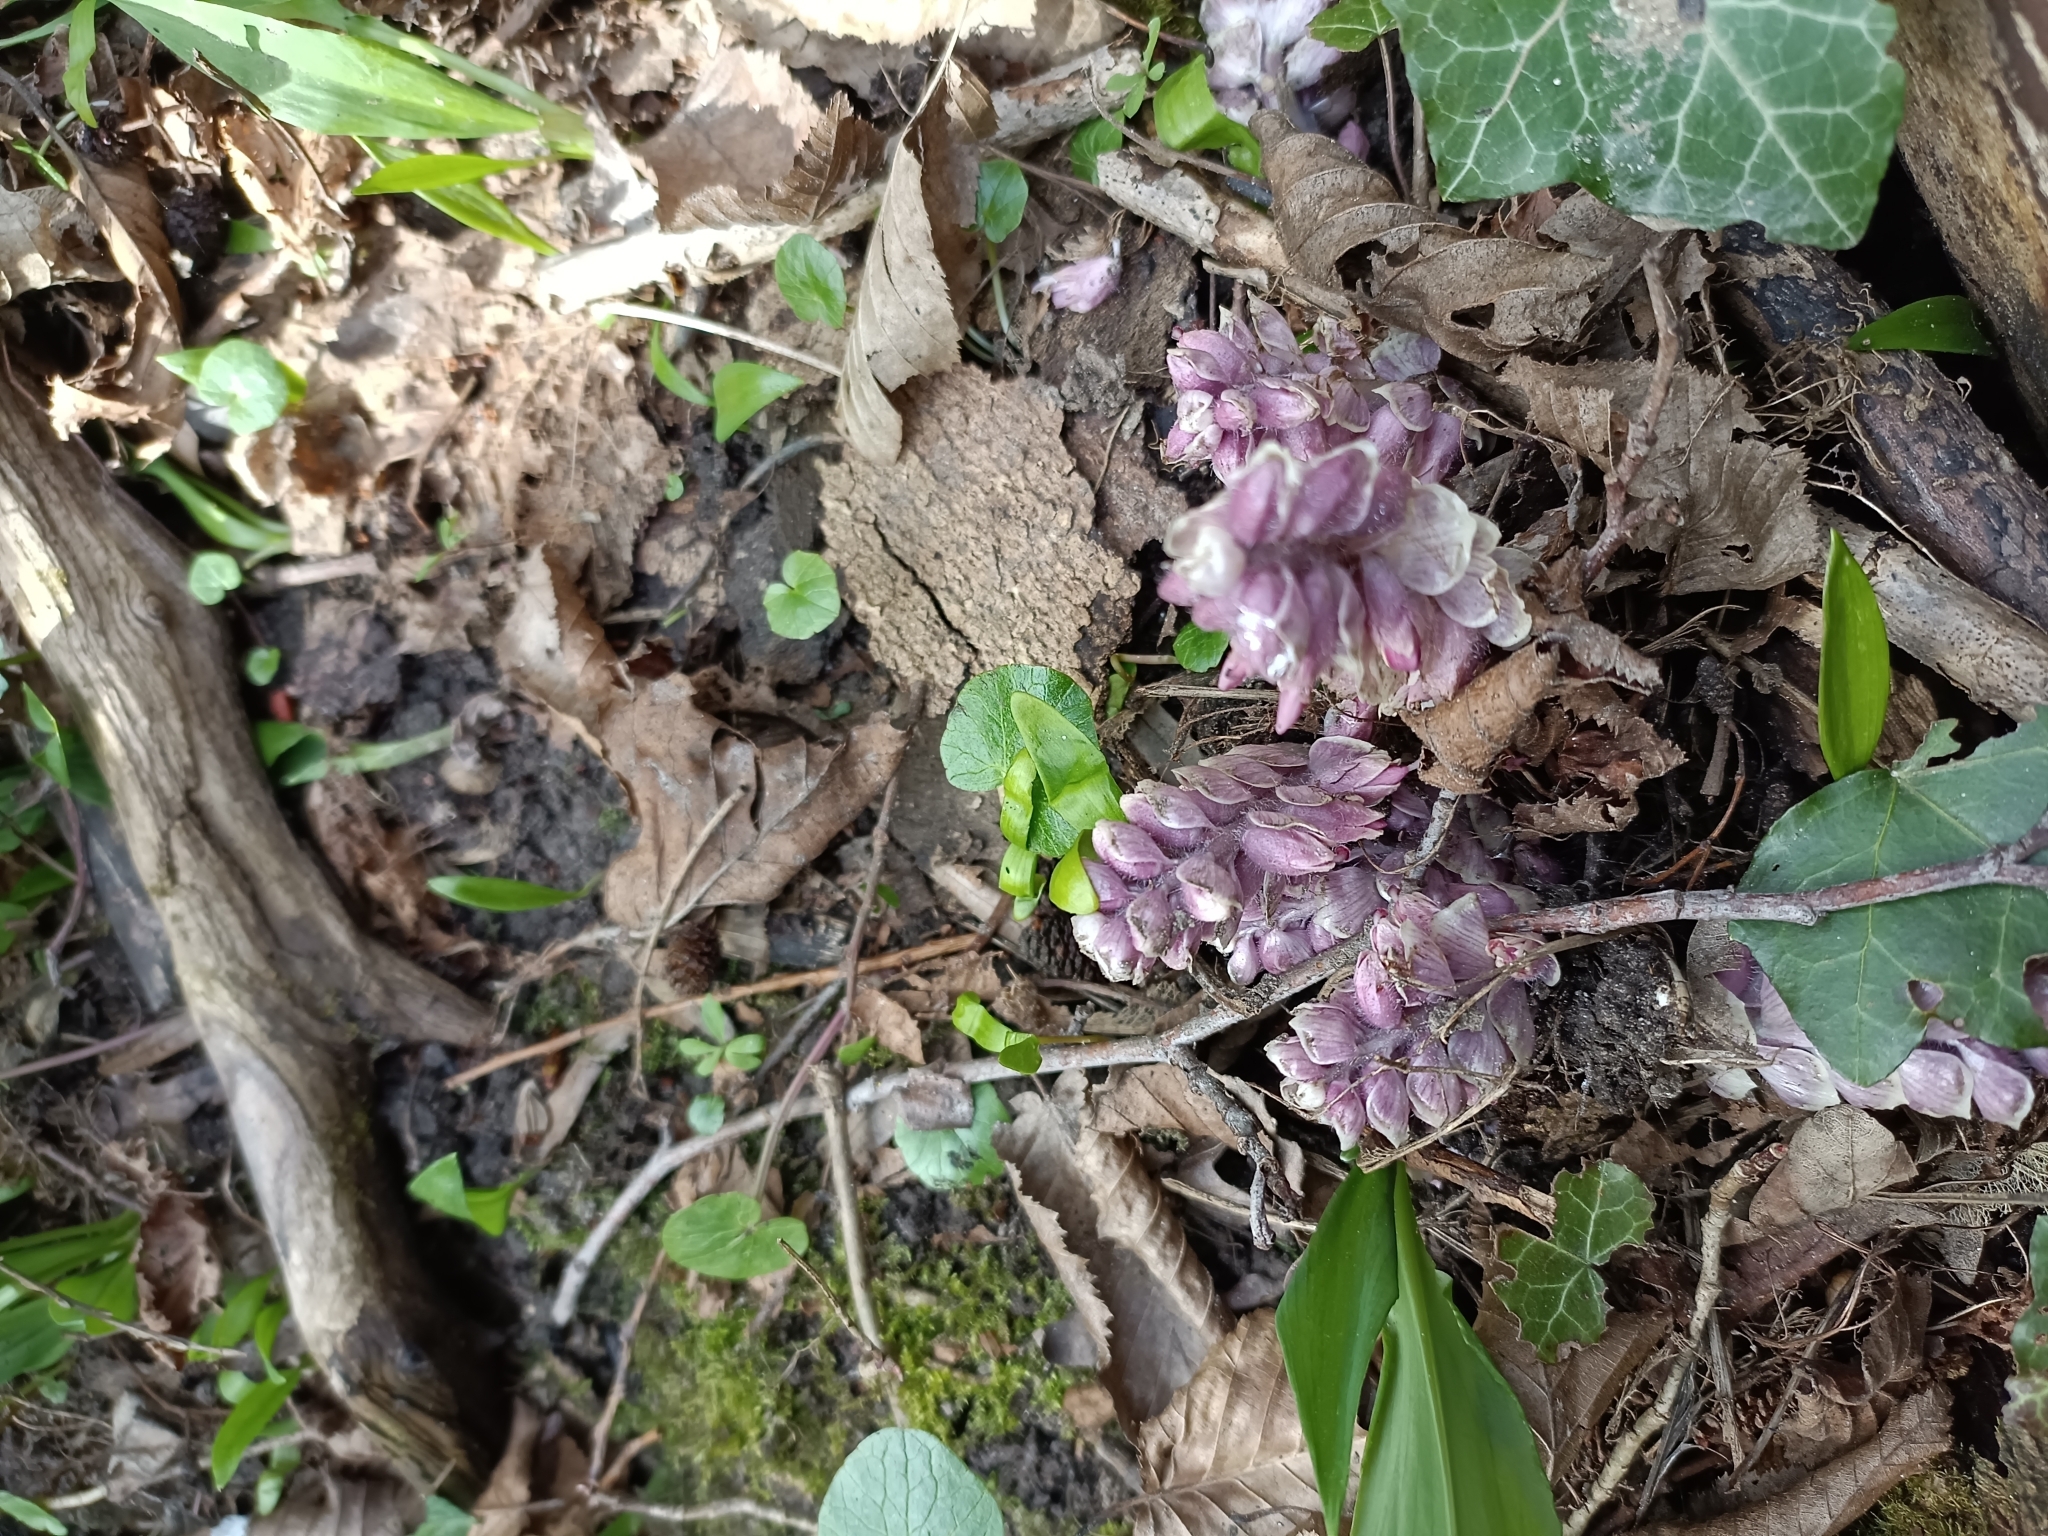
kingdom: Plantae
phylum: Tracheophyta
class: Magnoliopsida
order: Lamiales
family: Orobanchaceae
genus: Lathraea
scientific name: Lathraea squamaria
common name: Toothwort
